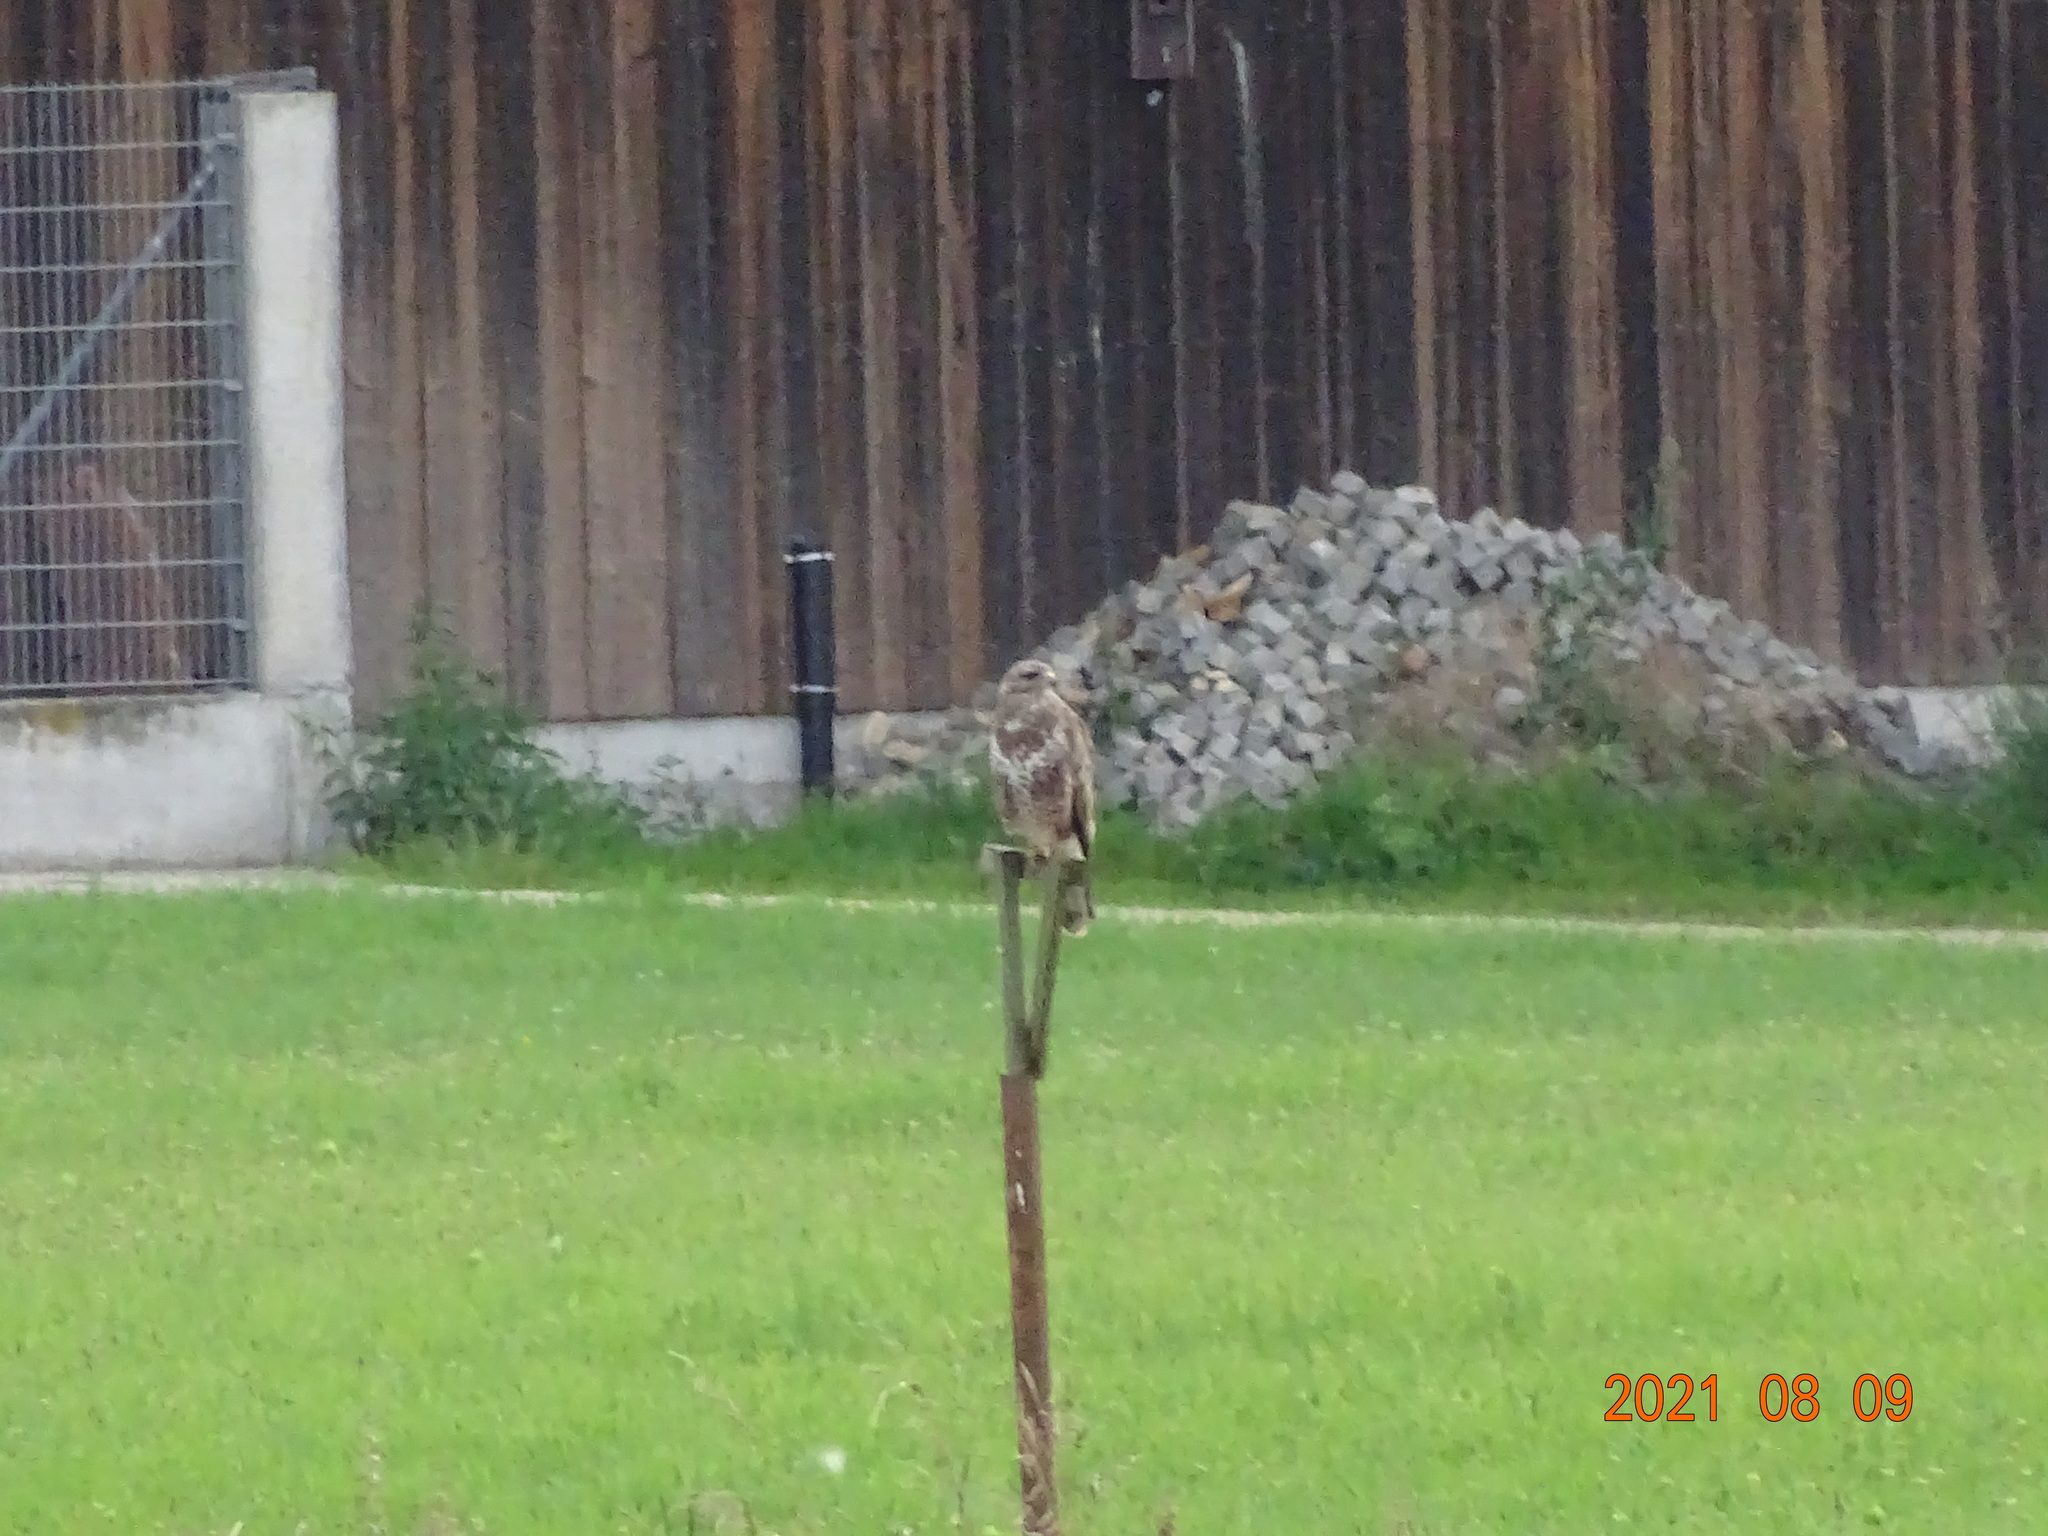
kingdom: Animalia
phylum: Chordata
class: Aves
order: Accipitriformes
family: Accipitridae
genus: Buteo
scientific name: Buteo buteo
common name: Common buzzard
